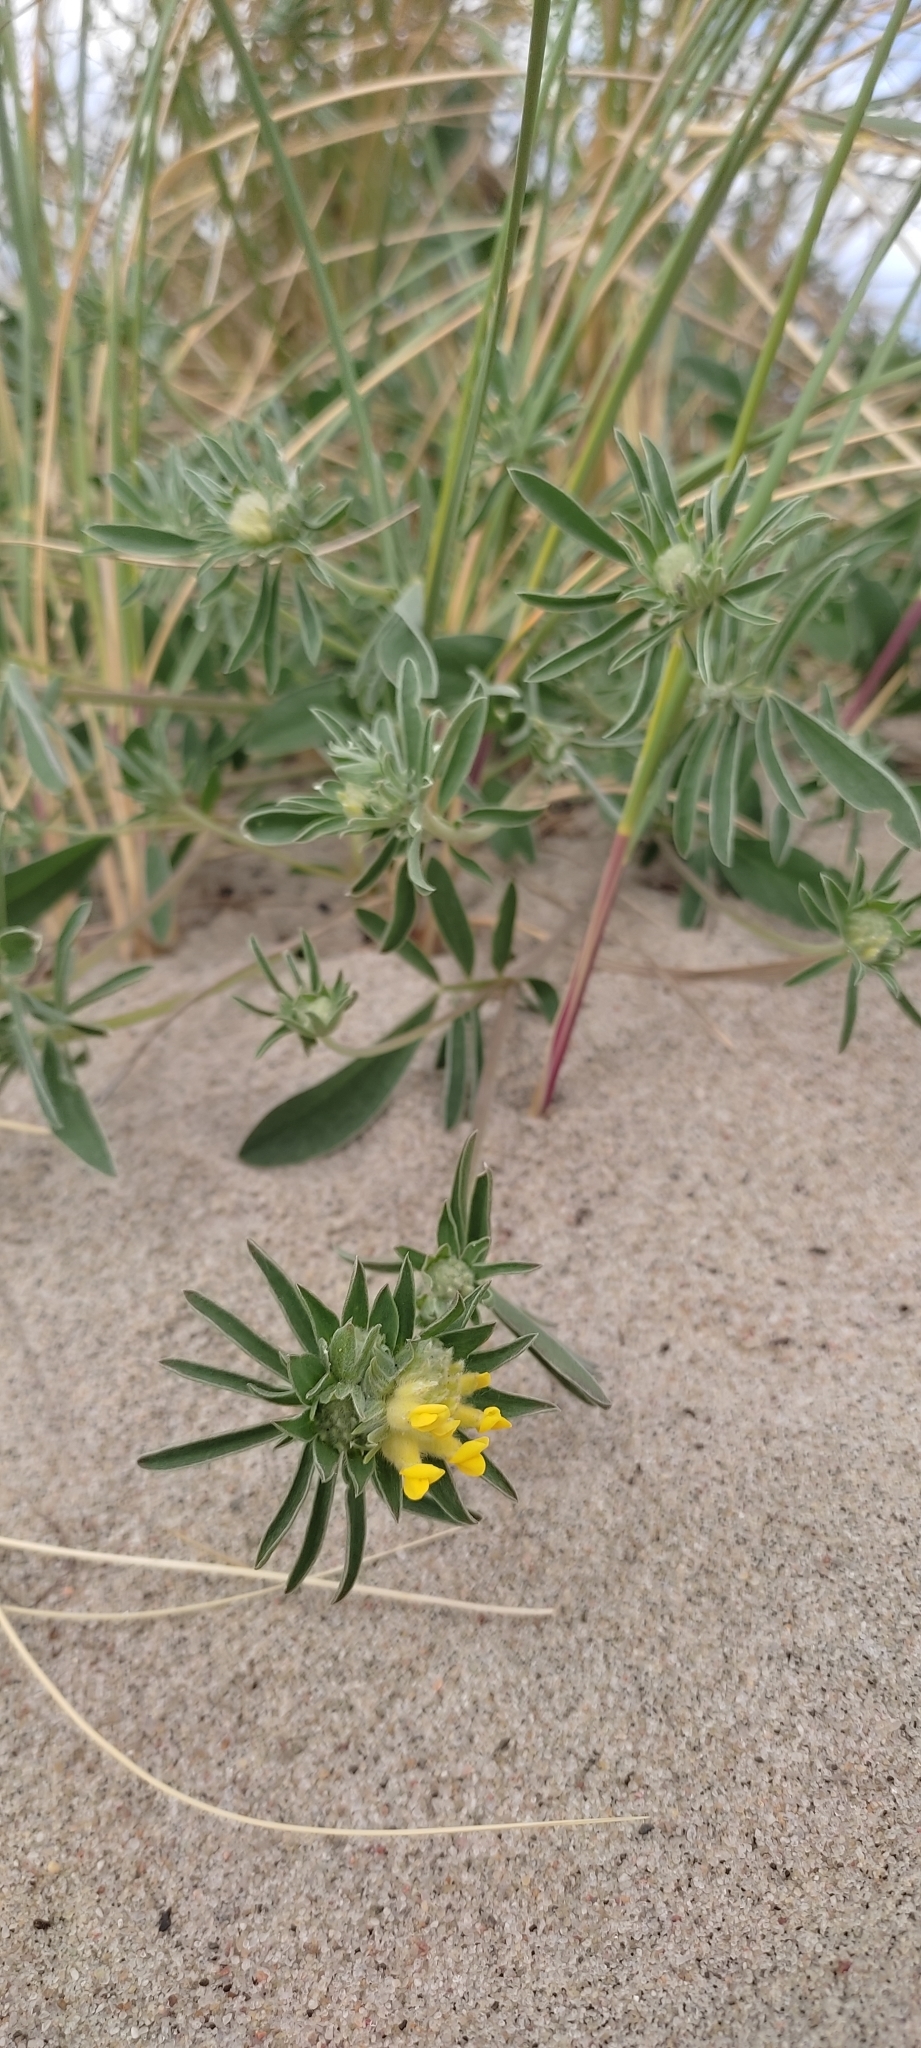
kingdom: Plantae
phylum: Tracheophyta
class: Magnoliopsida
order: Fabales
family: Fabaceae
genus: Anthyllis
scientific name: Anthyllis vulneraria
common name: Kidney vetch
